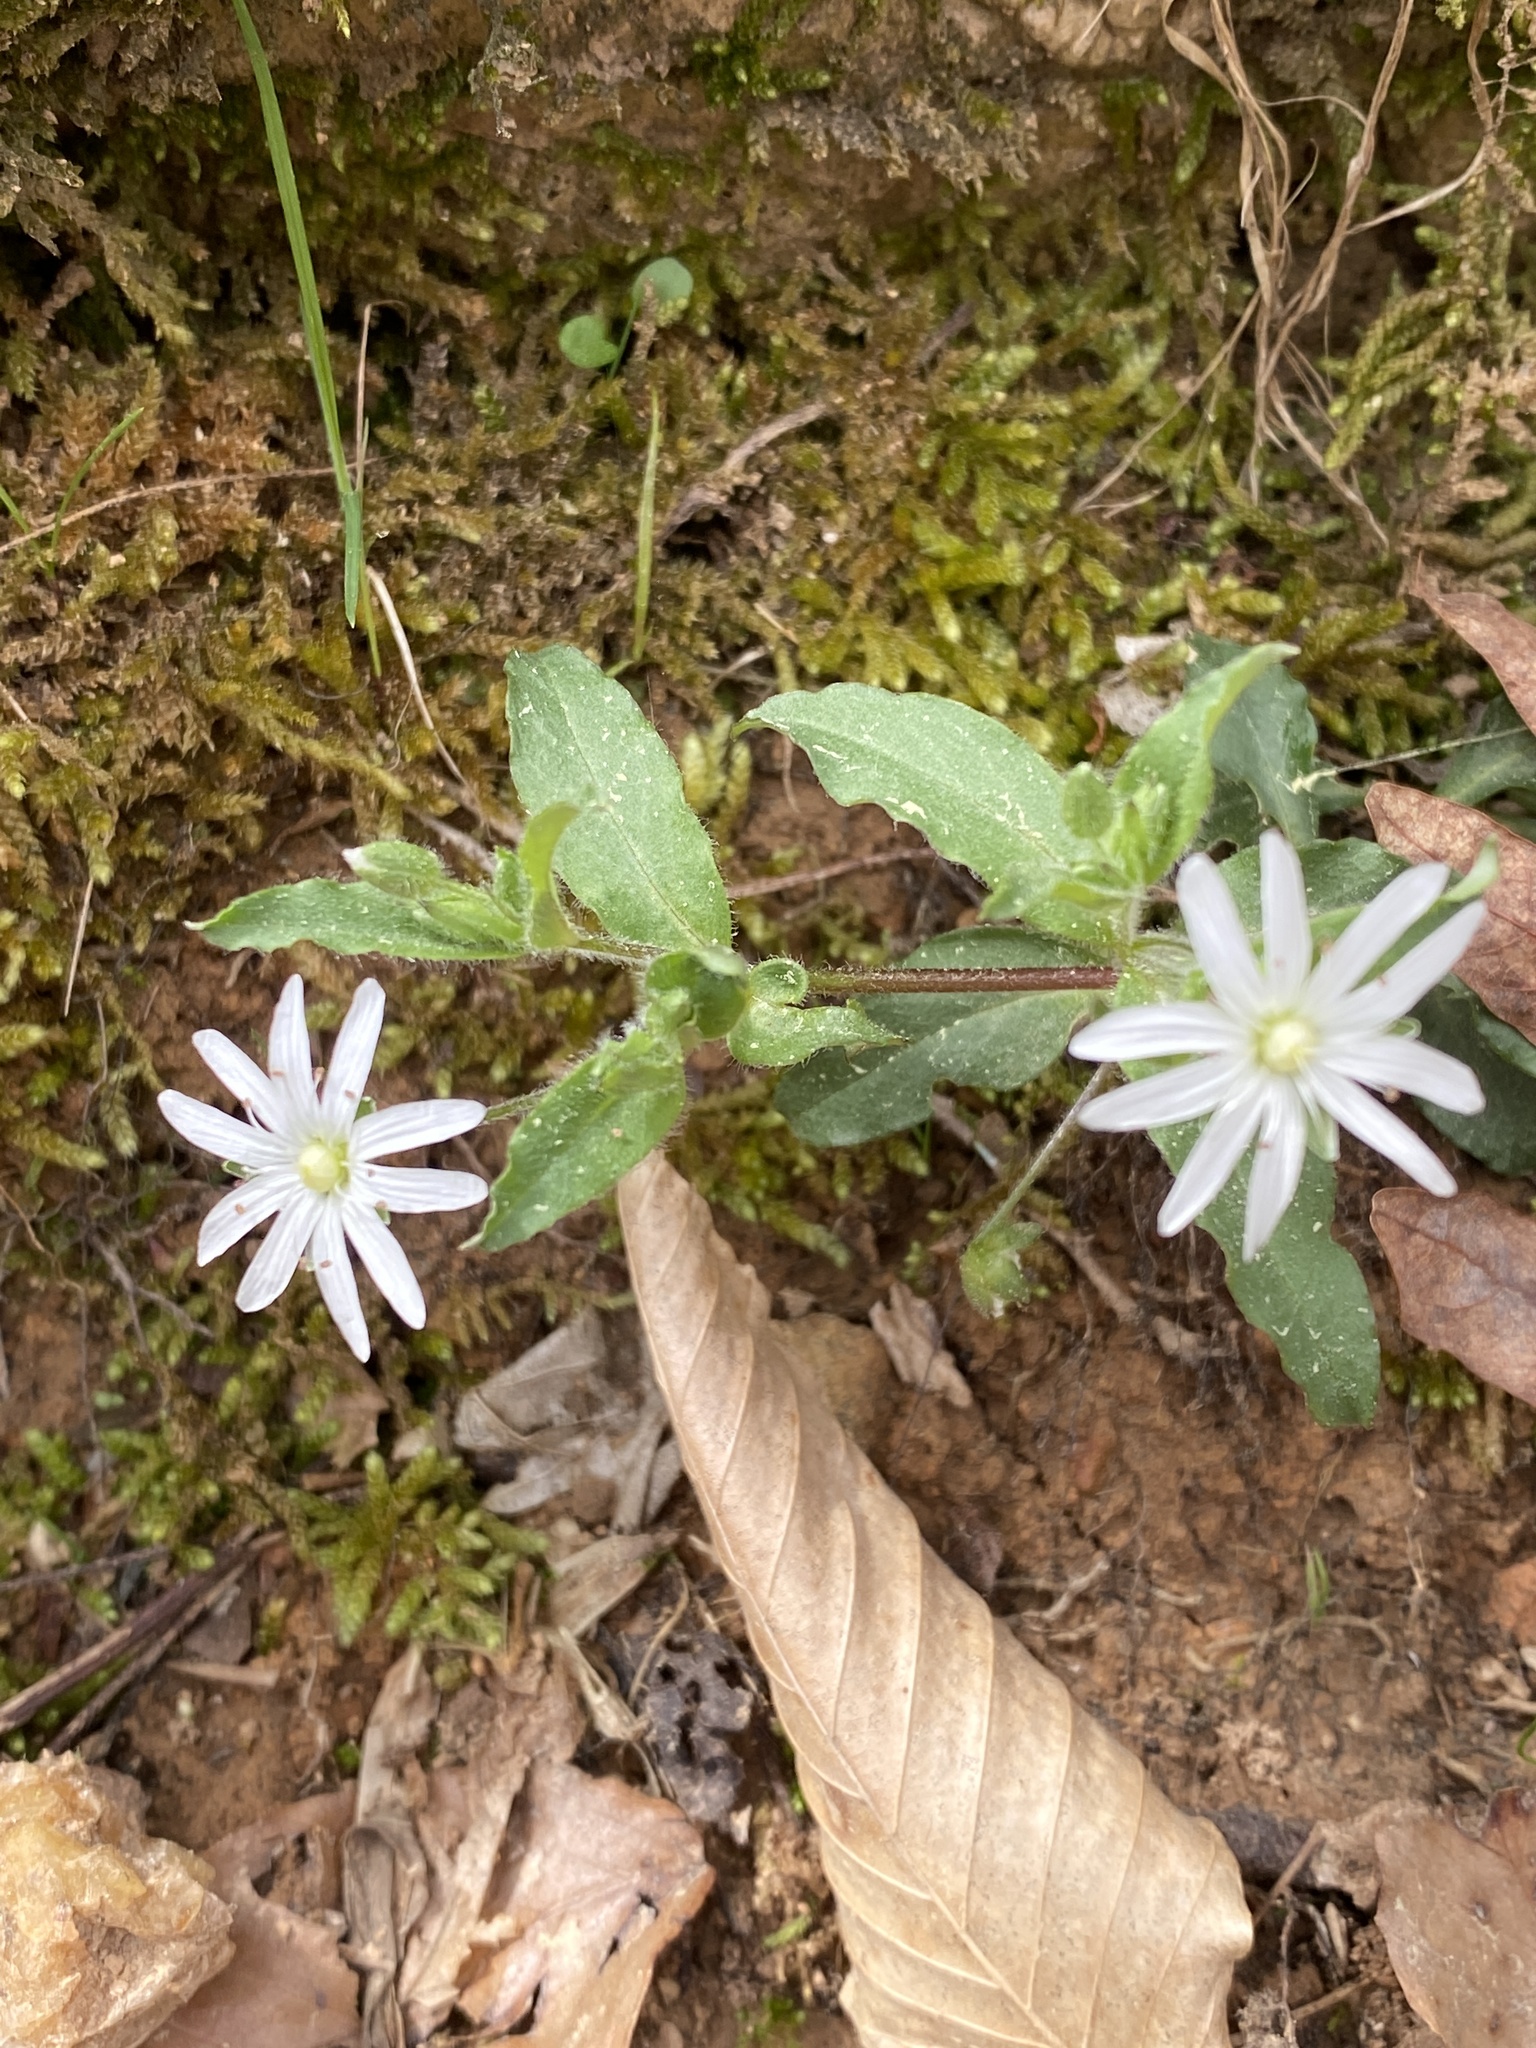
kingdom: Plantae
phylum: Tracheophyta
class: Magnoliopsida
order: Caryophyllales
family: Caryophyllaceae
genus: Stellaria
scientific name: Stellaria pubera
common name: Star chickweed
